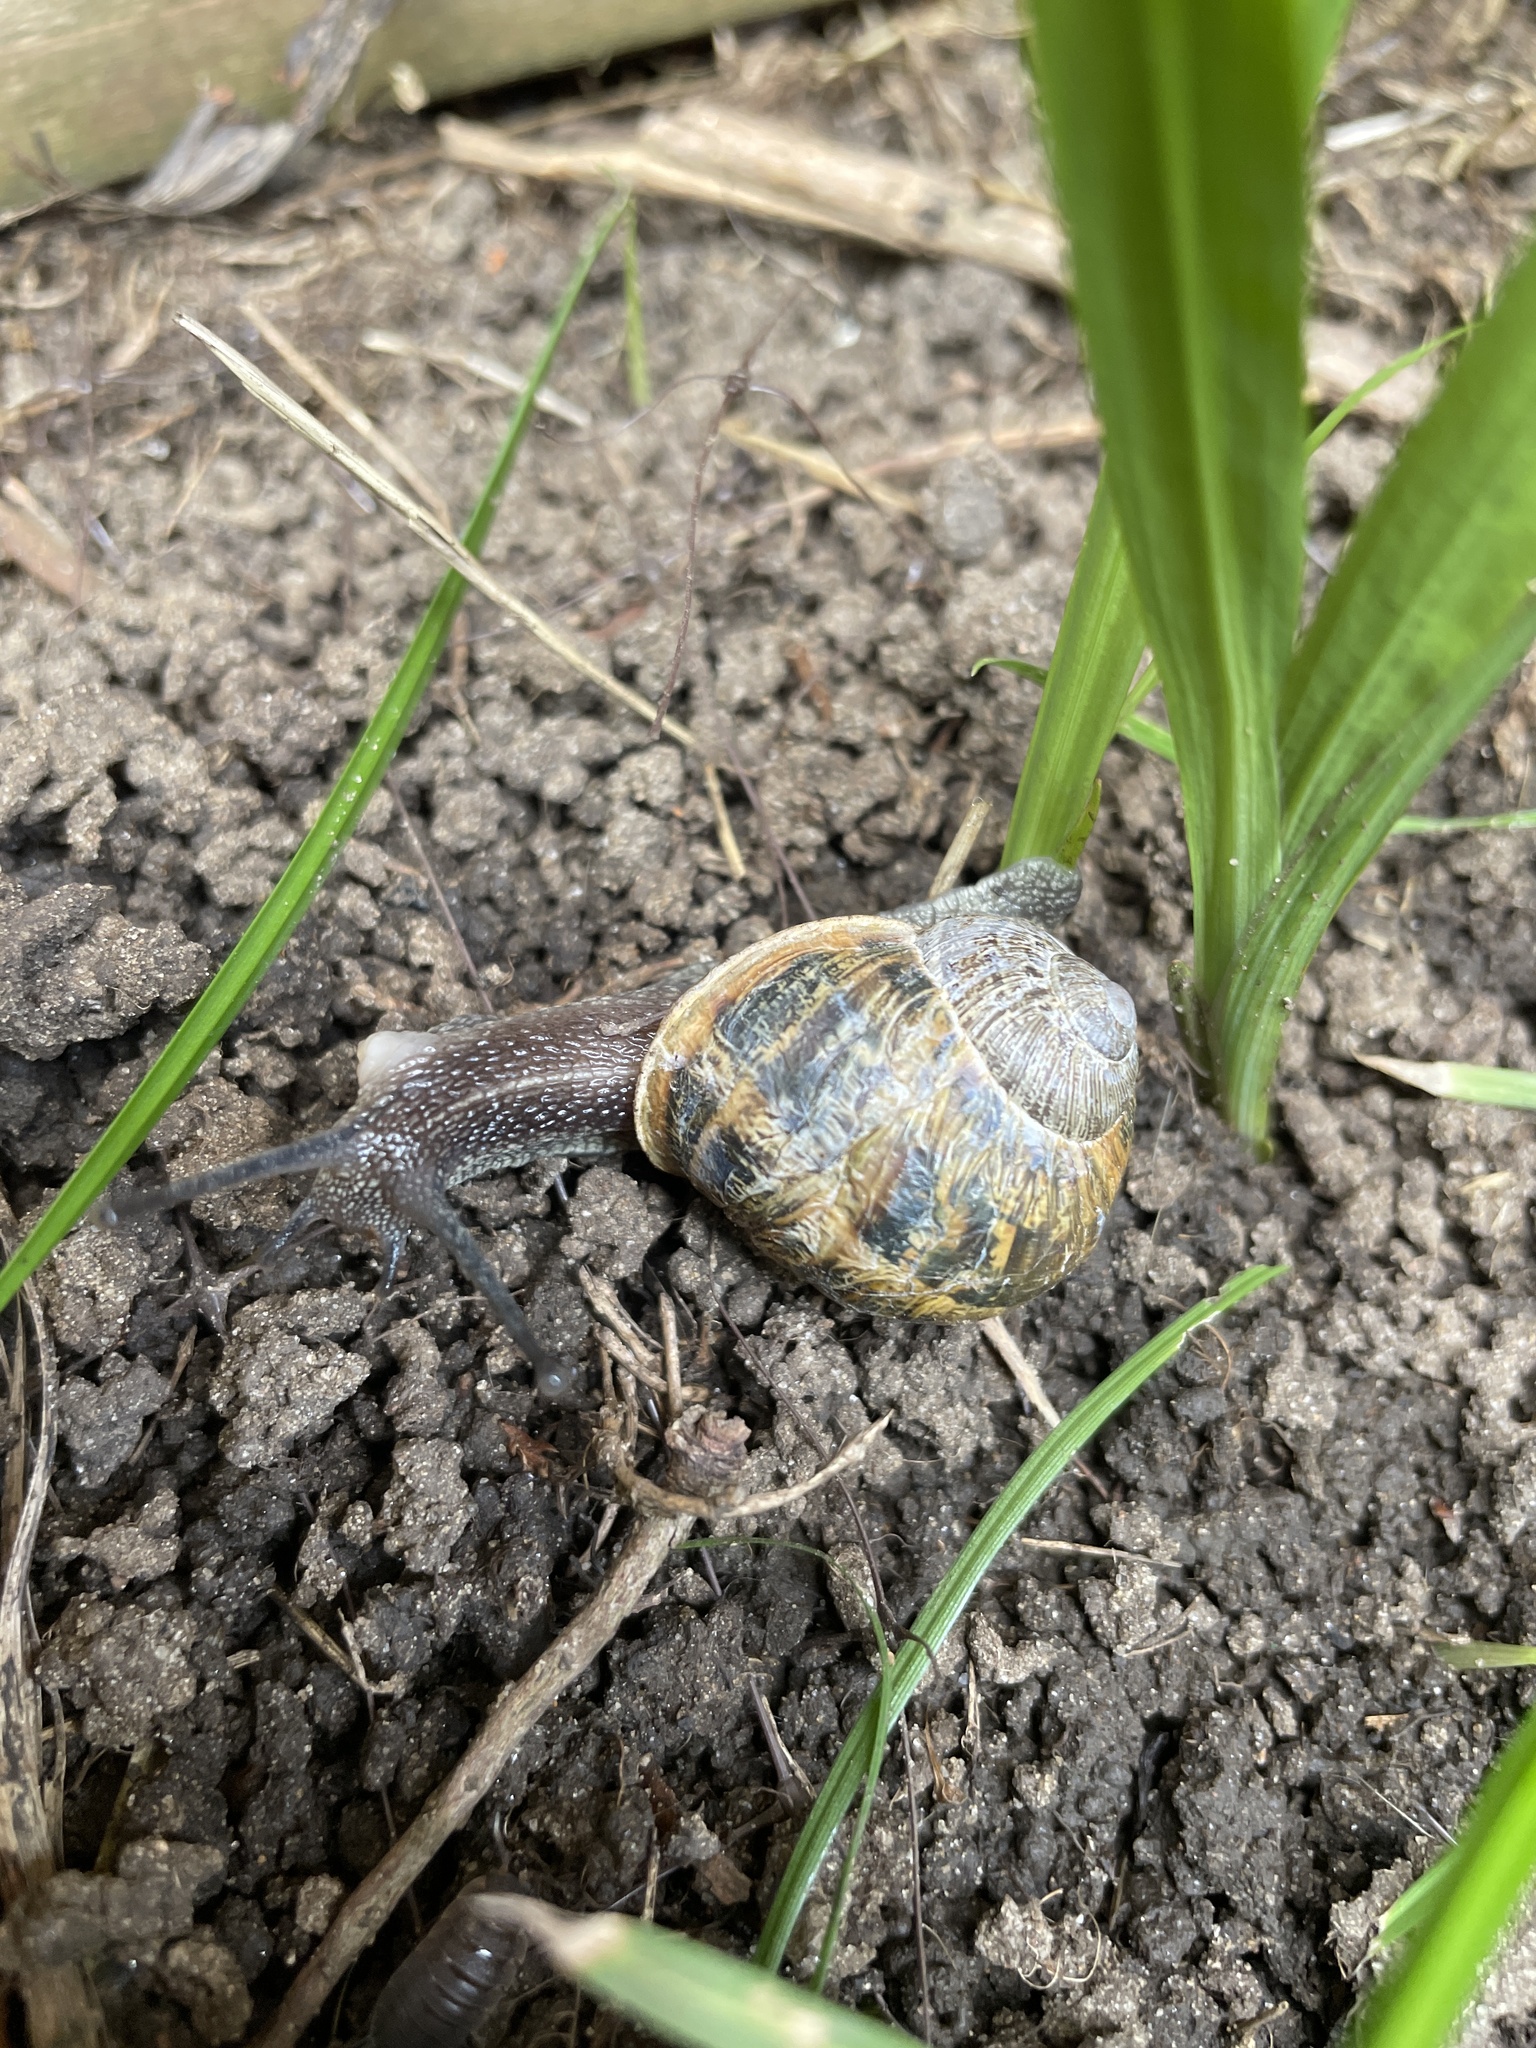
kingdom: Animalia
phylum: Mollusca
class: Gastropoda
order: Stylommatophora
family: Helicidae
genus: Cornu
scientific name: Cornu aspersum
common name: Brown garden snail
